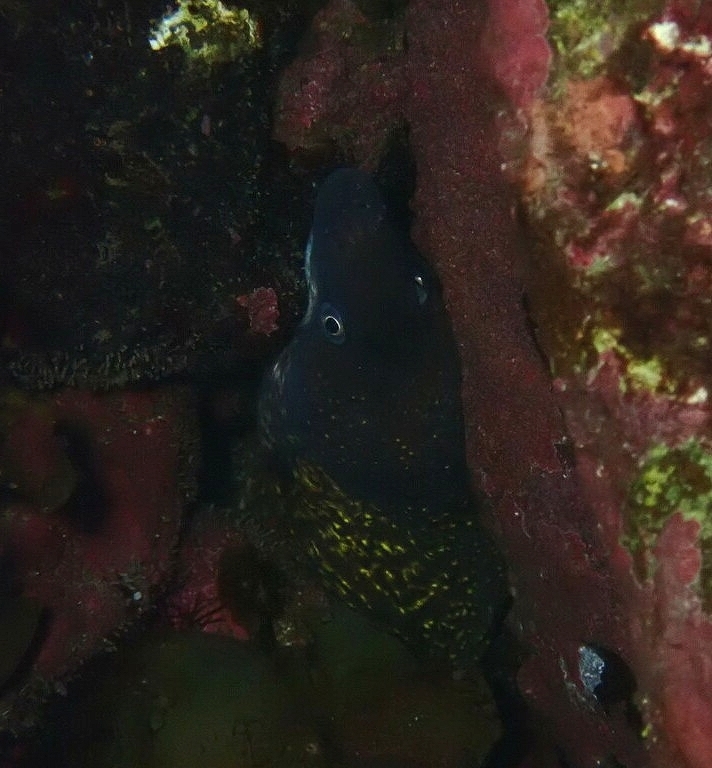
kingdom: Animalia
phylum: Chordata
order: Anguilliformes
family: Muraenidae
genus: Muraena
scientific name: Muraena helena
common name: Mediterranean moray
